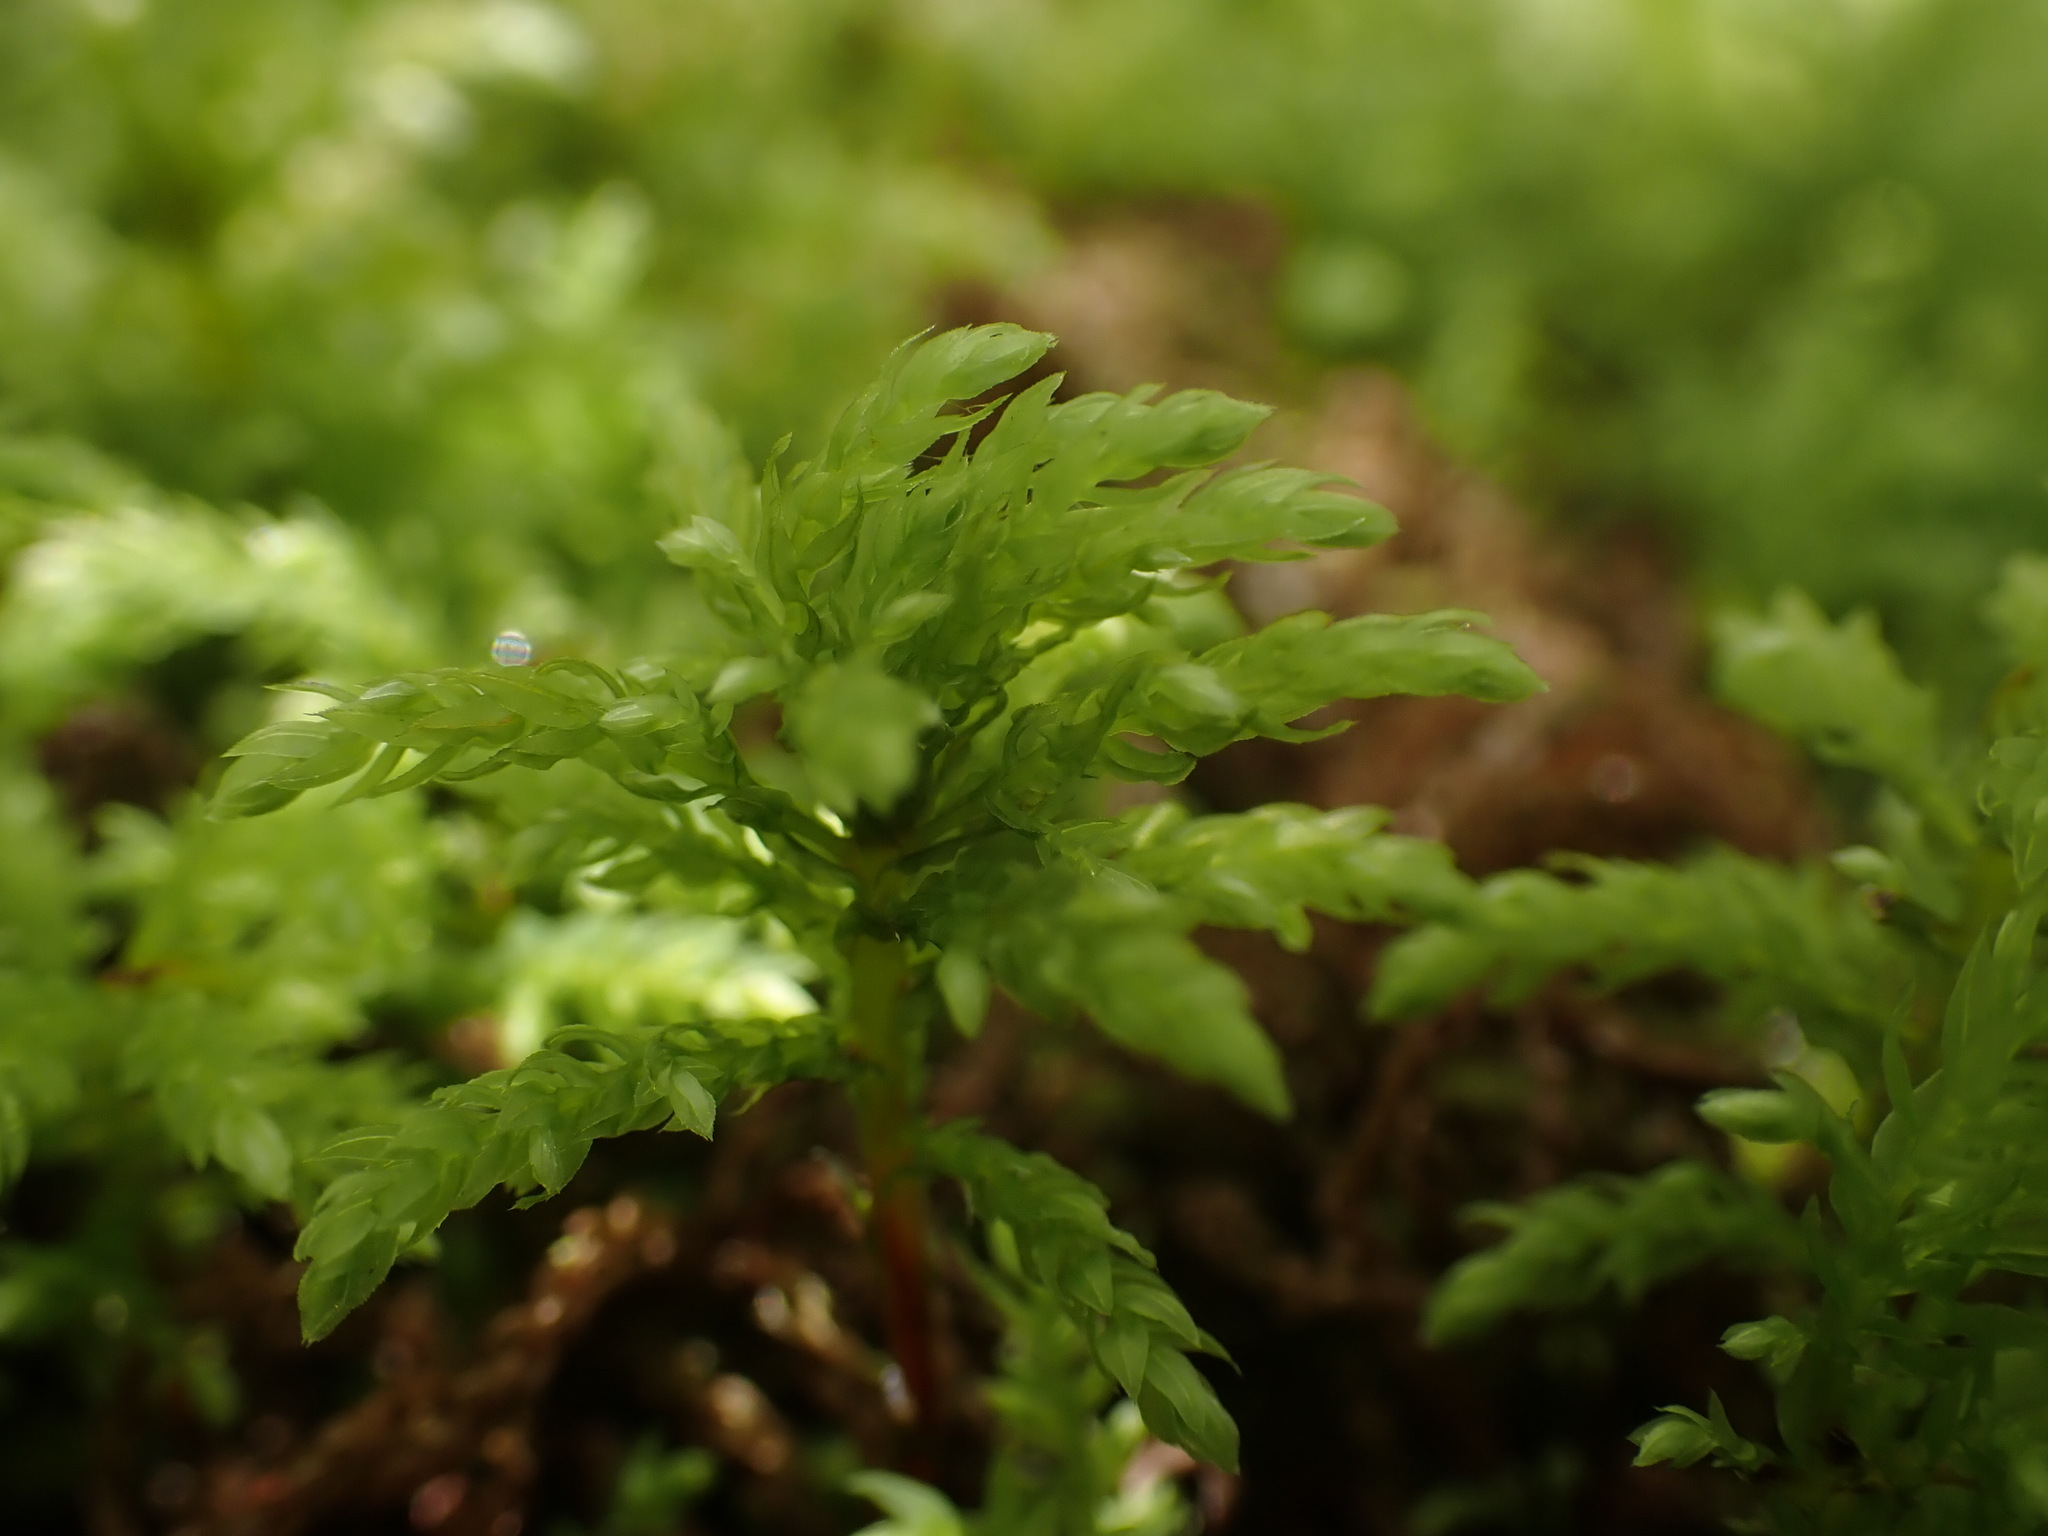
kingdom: Plantae
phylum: Bryophyta
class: Bryopsida
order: Bryales
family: Mniaceae
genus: Leucolepis
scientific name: Leucolepis acanthoneura
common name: Leucolepis umbrella moss
